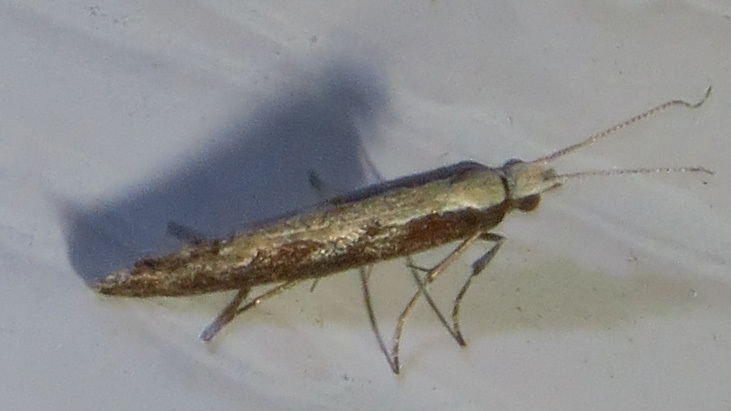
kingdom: Animalia
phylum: Arthropoda
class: Insecta
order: Lepidoptera
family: Plutellidae
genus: Plutella
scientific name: Plutella xylostella
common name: Diamond-back moth
